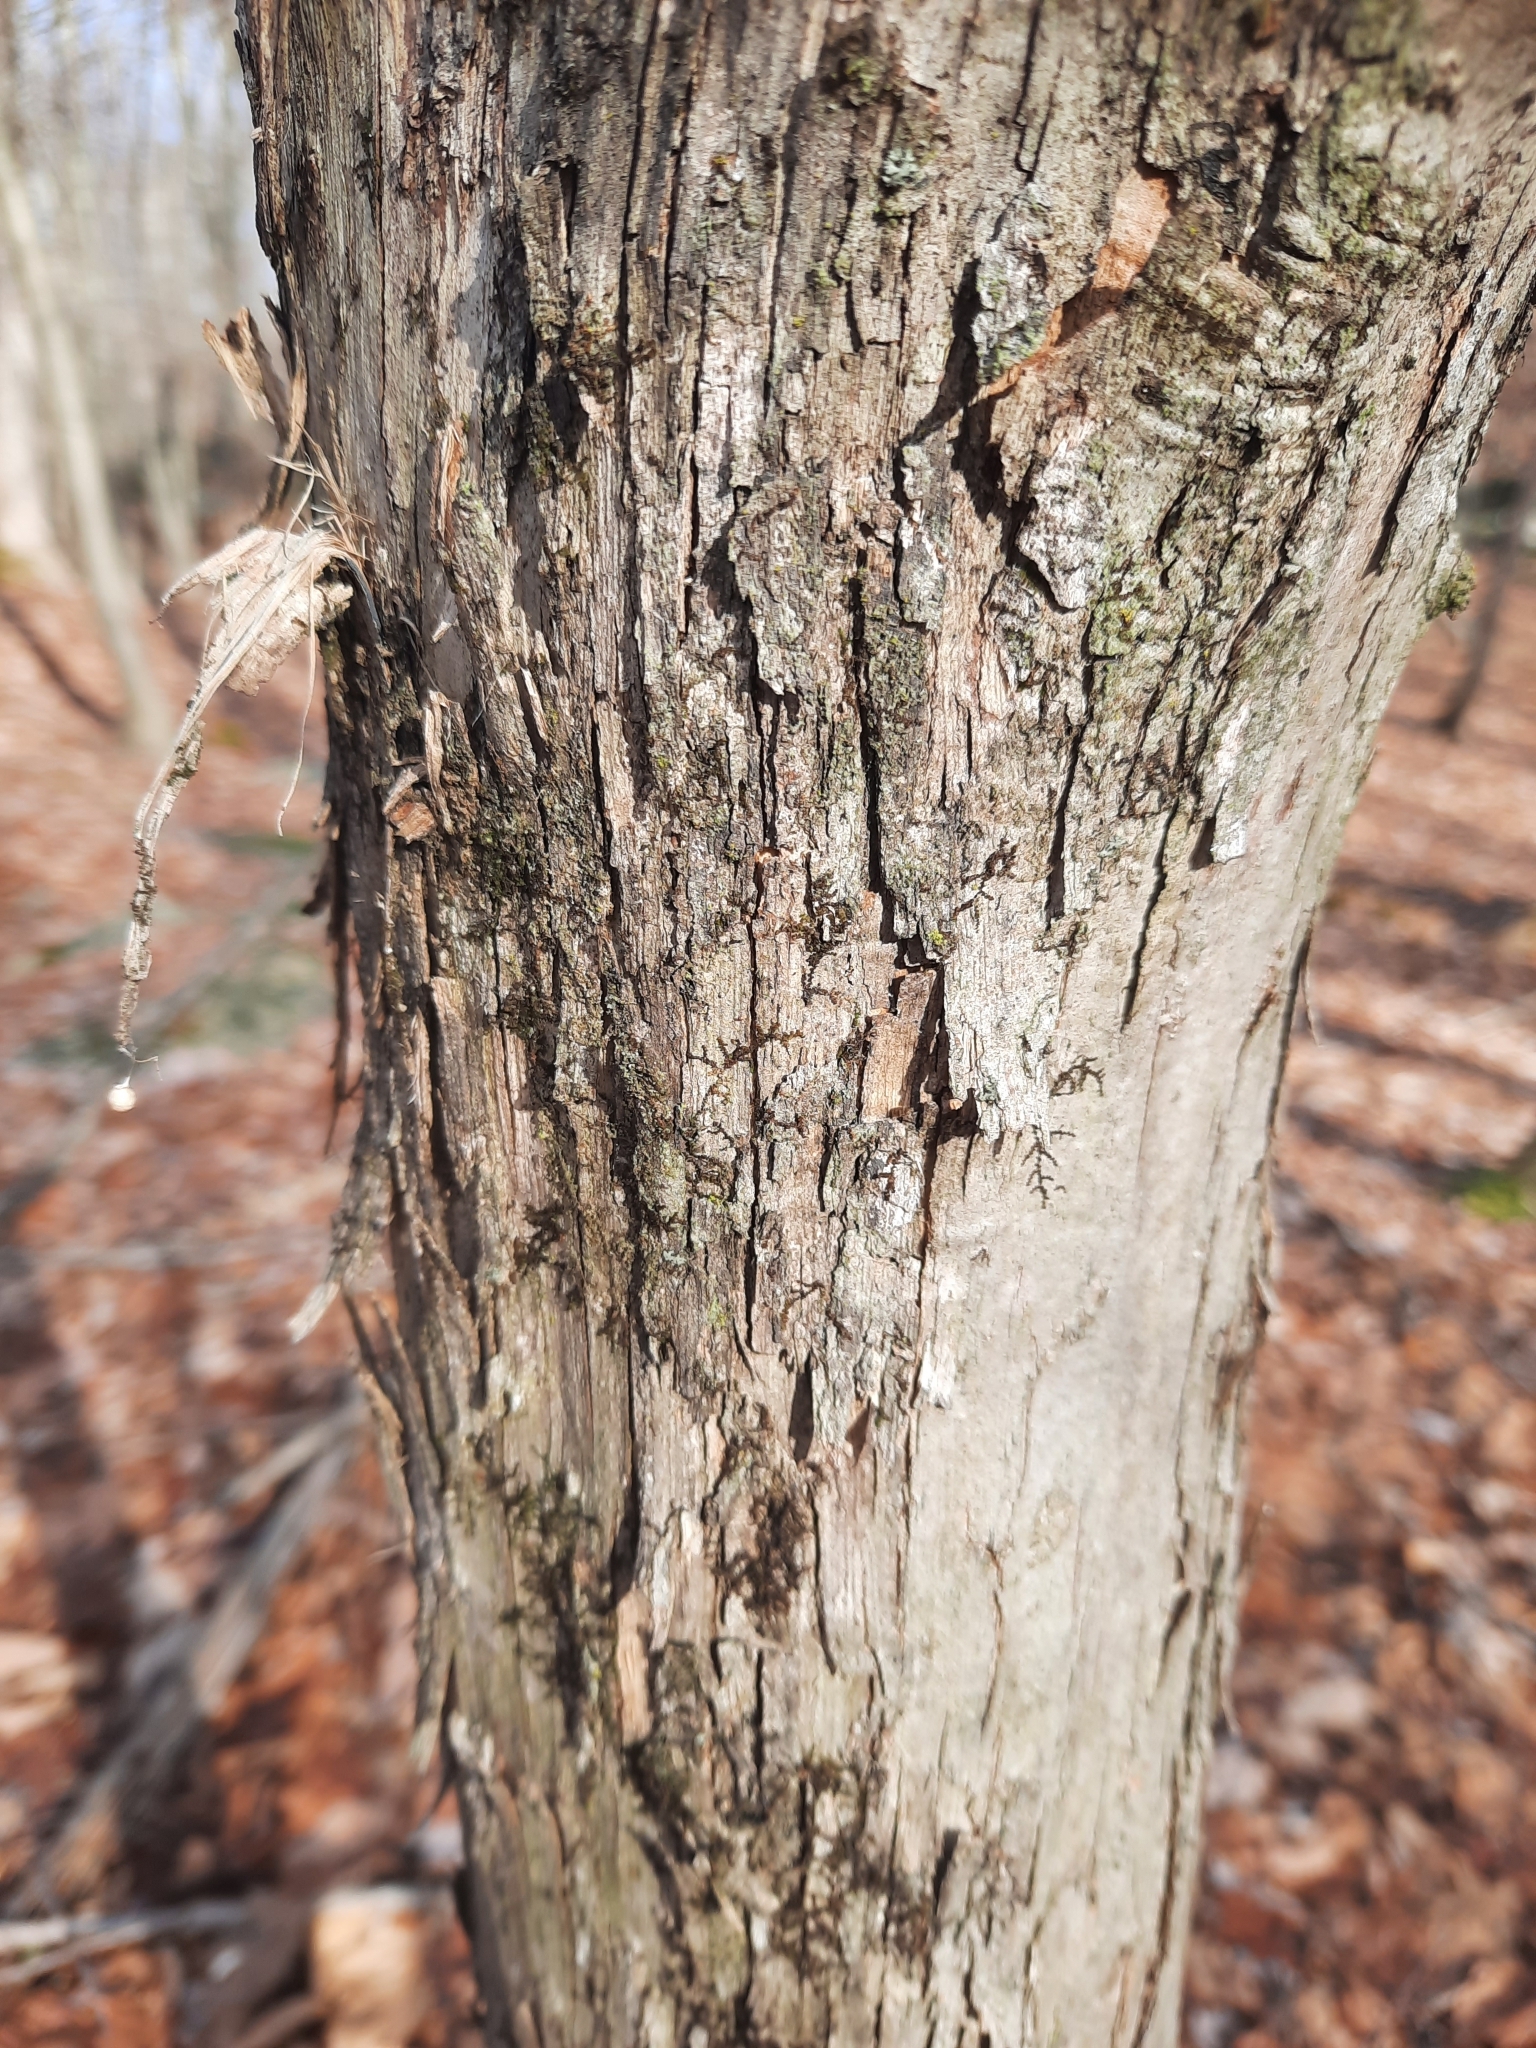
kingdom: Plantae
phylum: Tracheophyta
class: Magnoliopsida
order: Fagales
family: Betulaceae
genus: Ostrya
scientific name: Ostrya virginiana
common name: Ironwood
